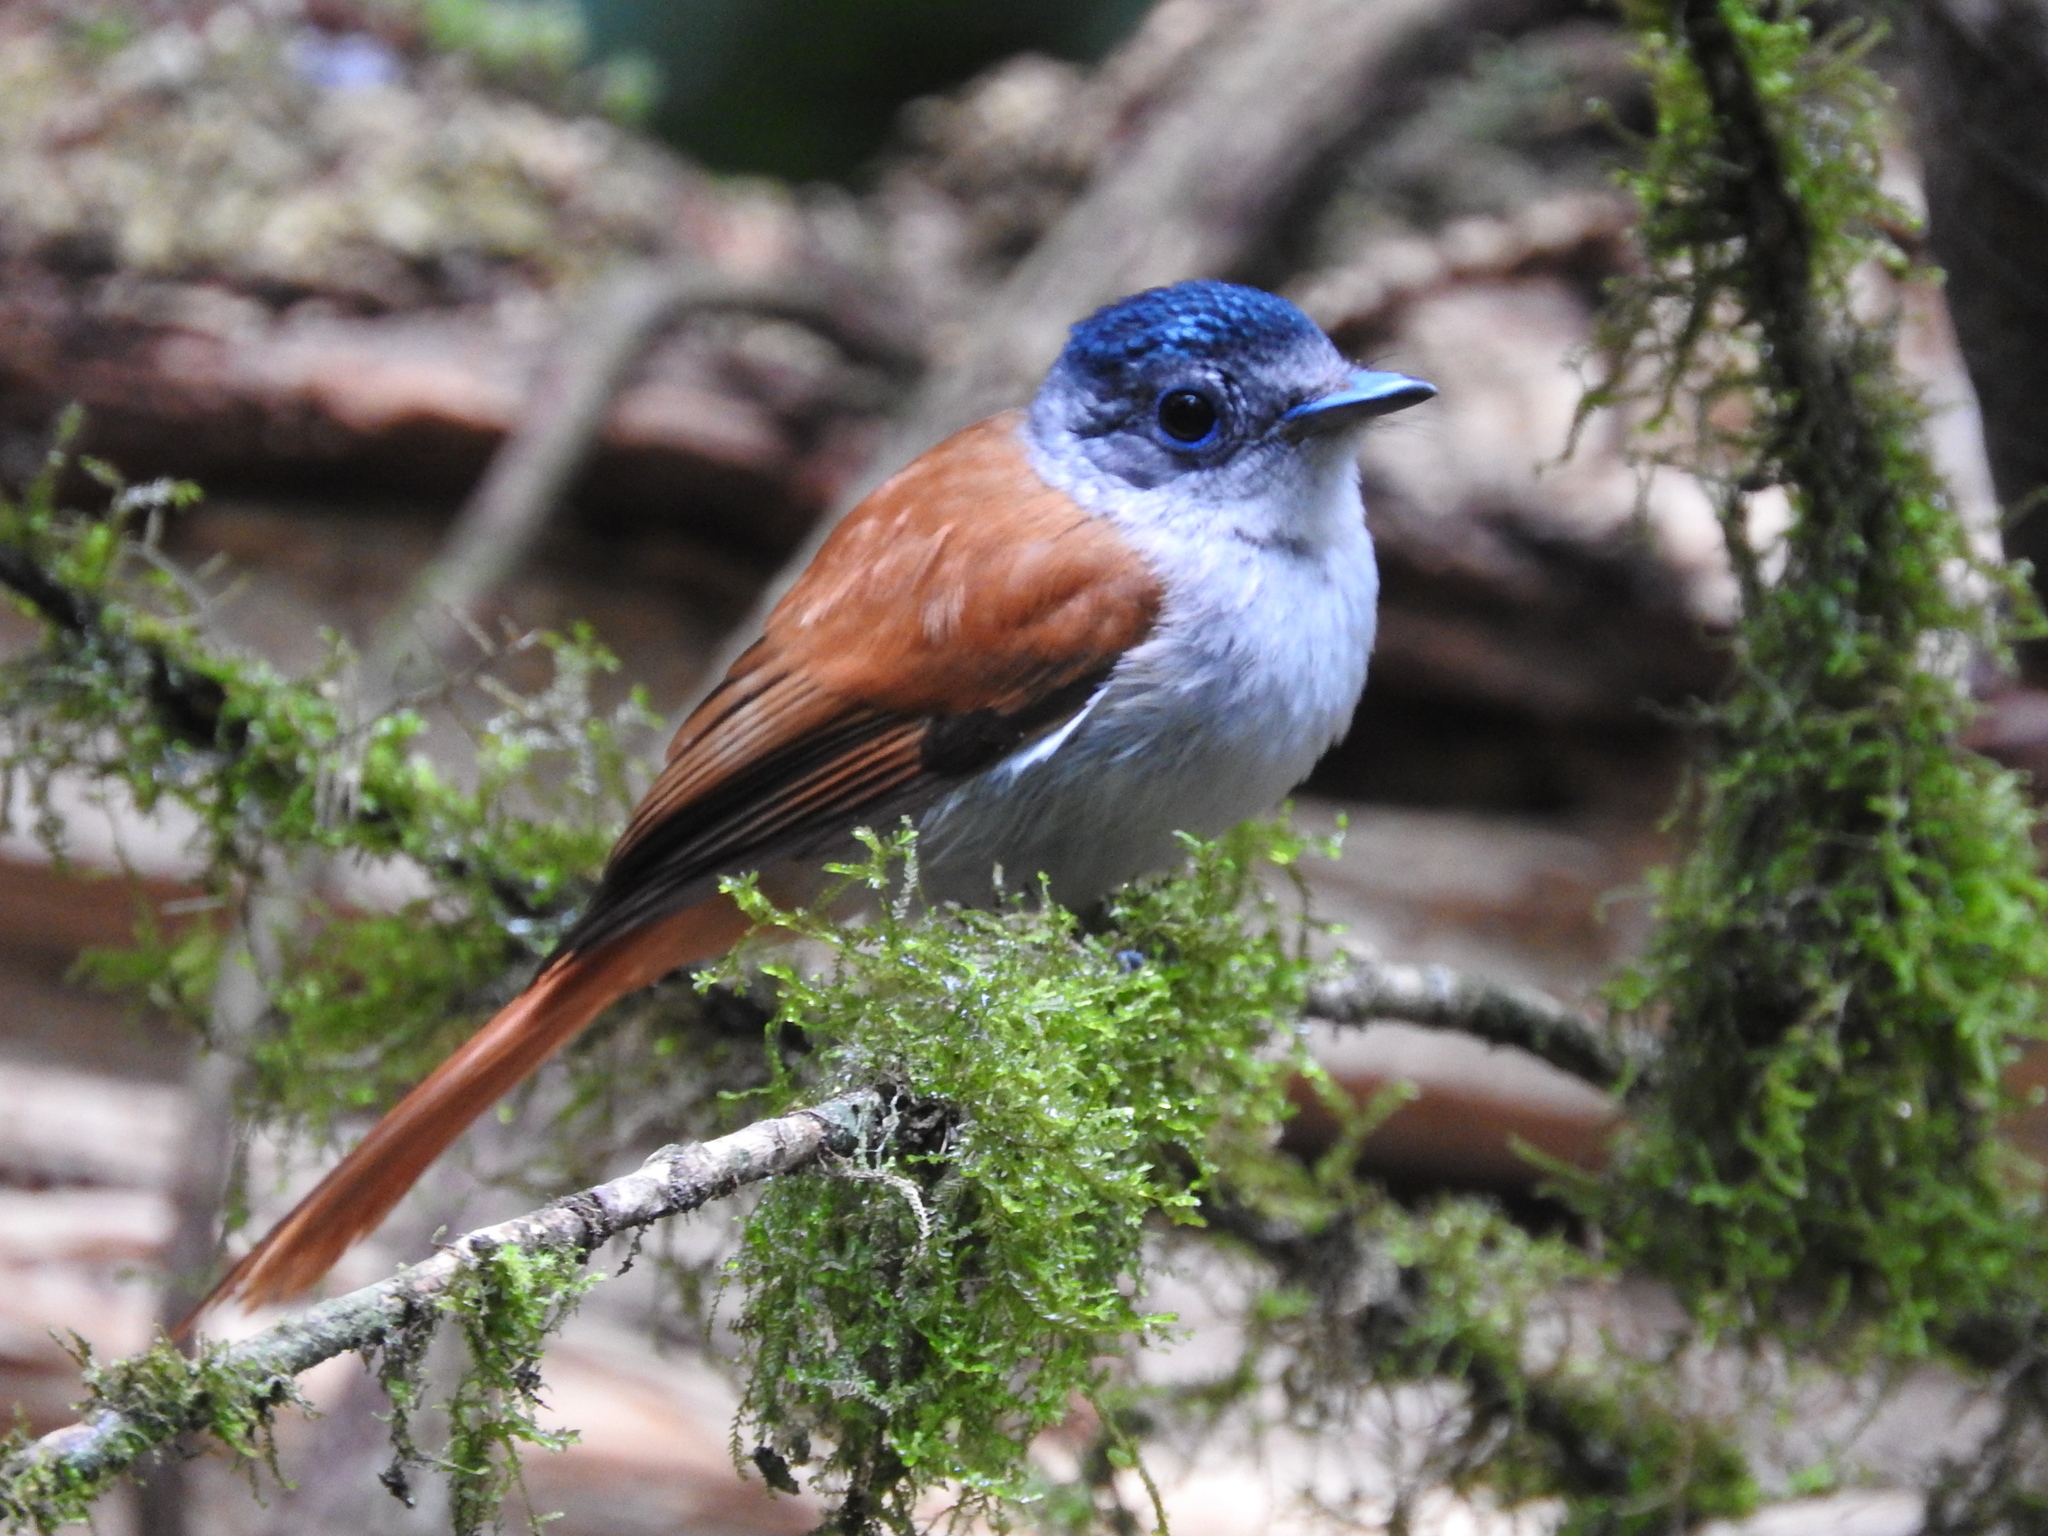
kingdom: Animalia
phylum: Chordata
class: Aves
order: Passeriformes
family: Monarchidae
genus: Terpsiphone
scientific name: Terpsiphone atrochalybeia
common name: Sao tome paradise flycatcher
